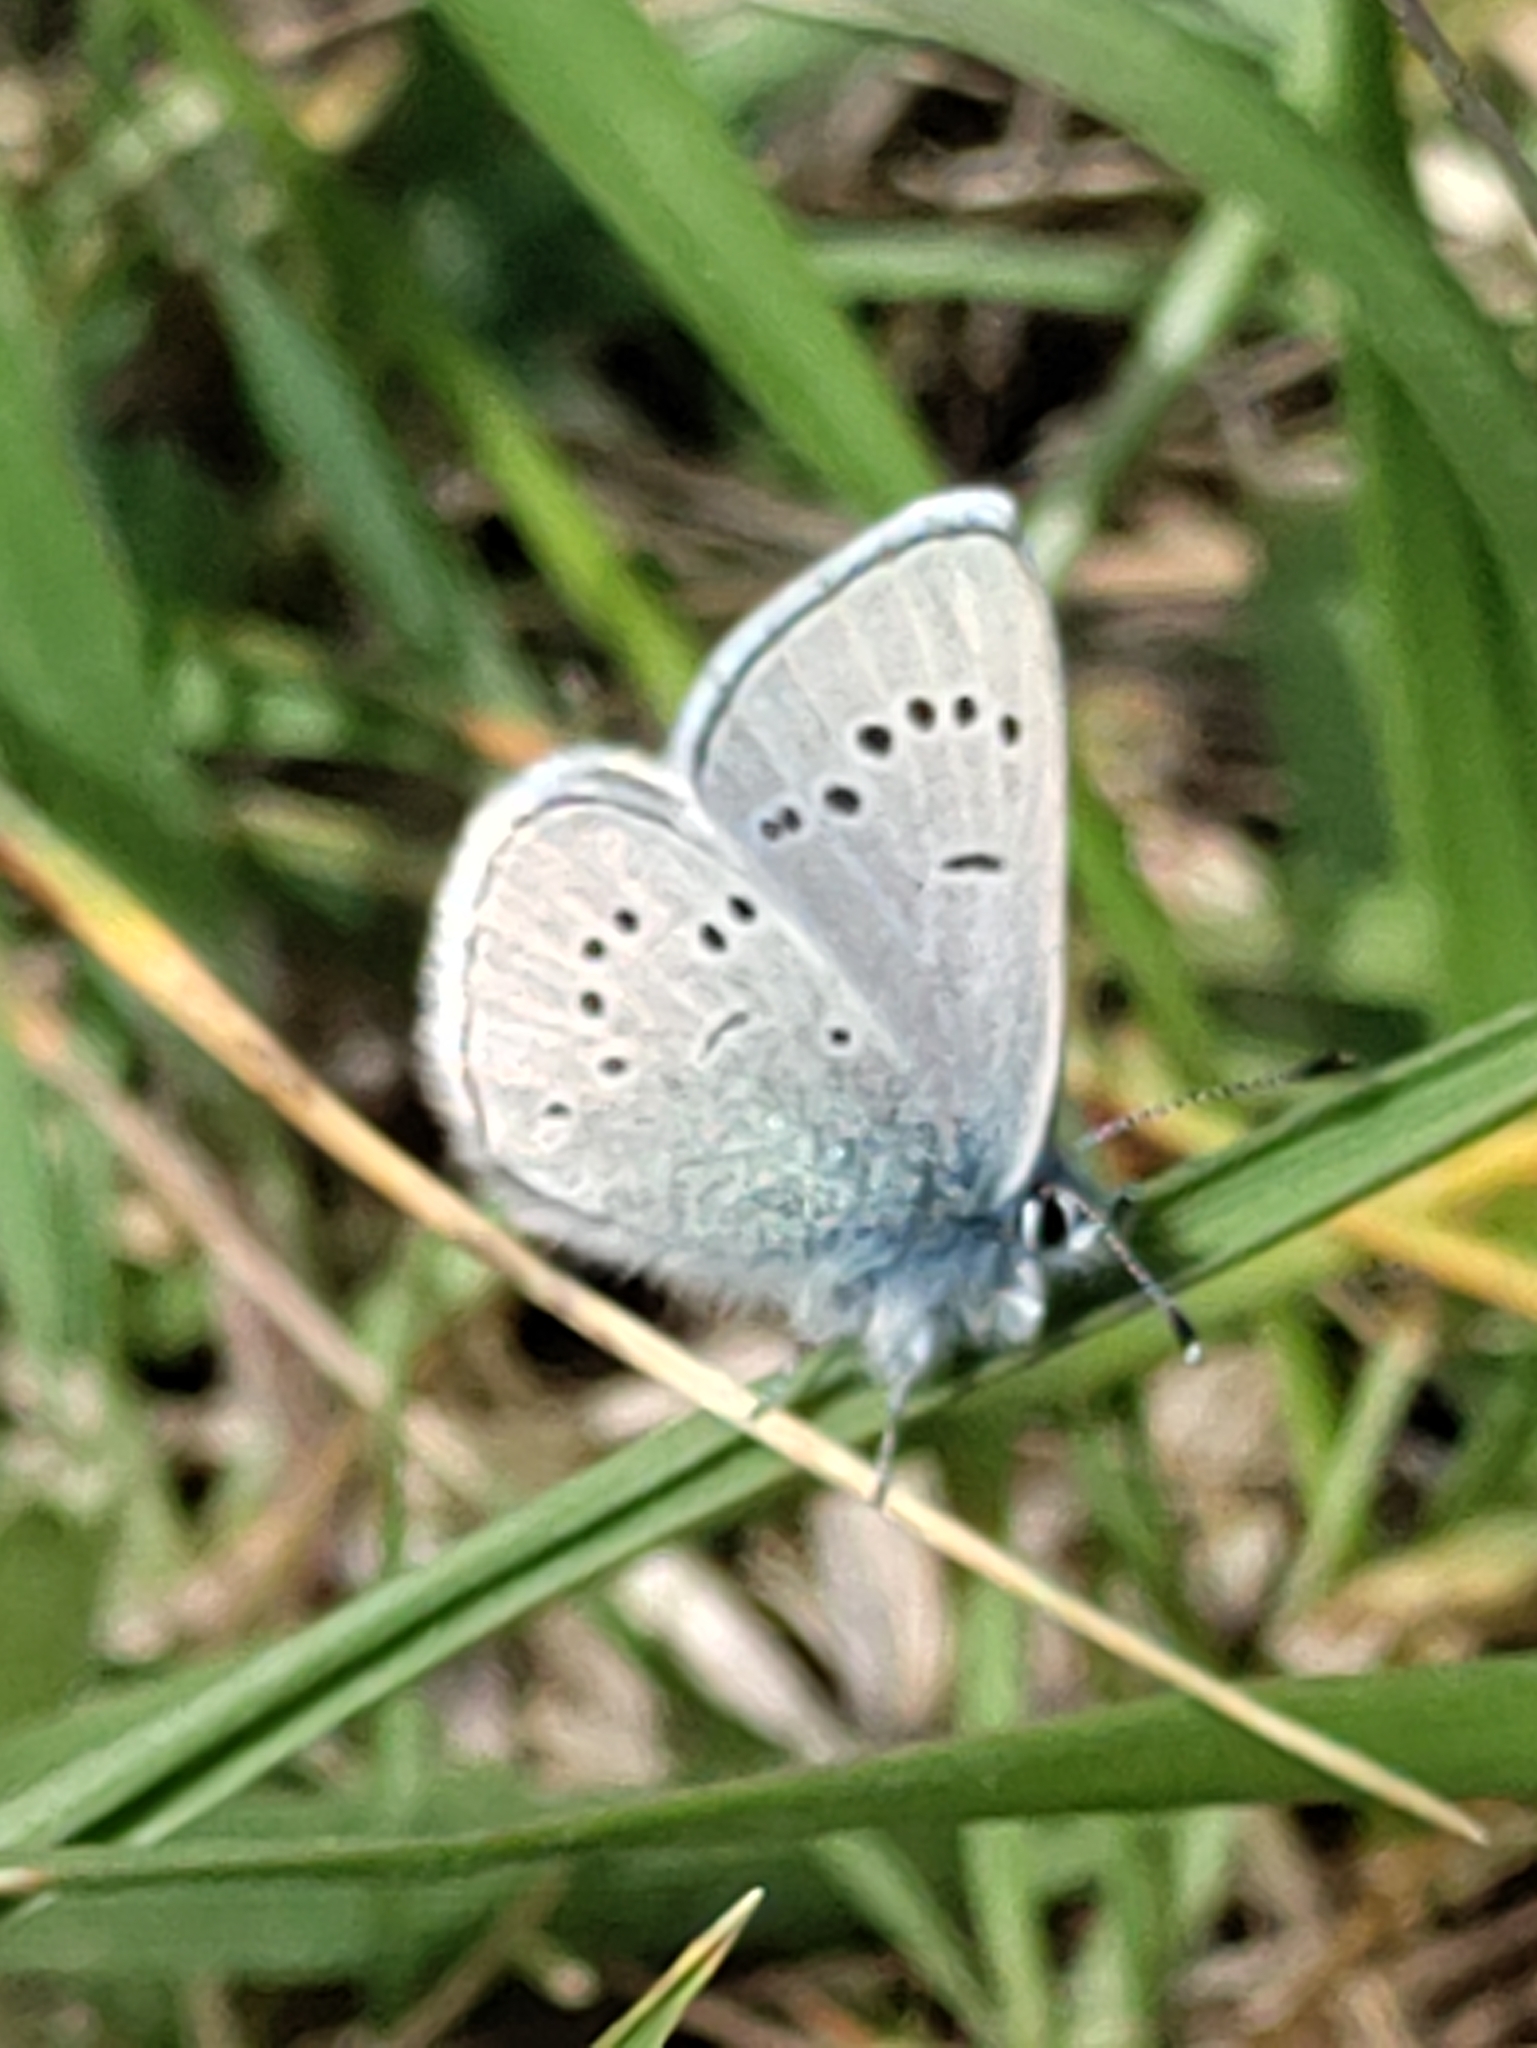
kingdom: Animalia
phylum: Arthropoda
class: Insecta
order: Lepidoptera
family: Lycaenidae
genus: Glaucopsyche
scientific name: Glaucopsyche lygdamus
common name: Silvery blue
